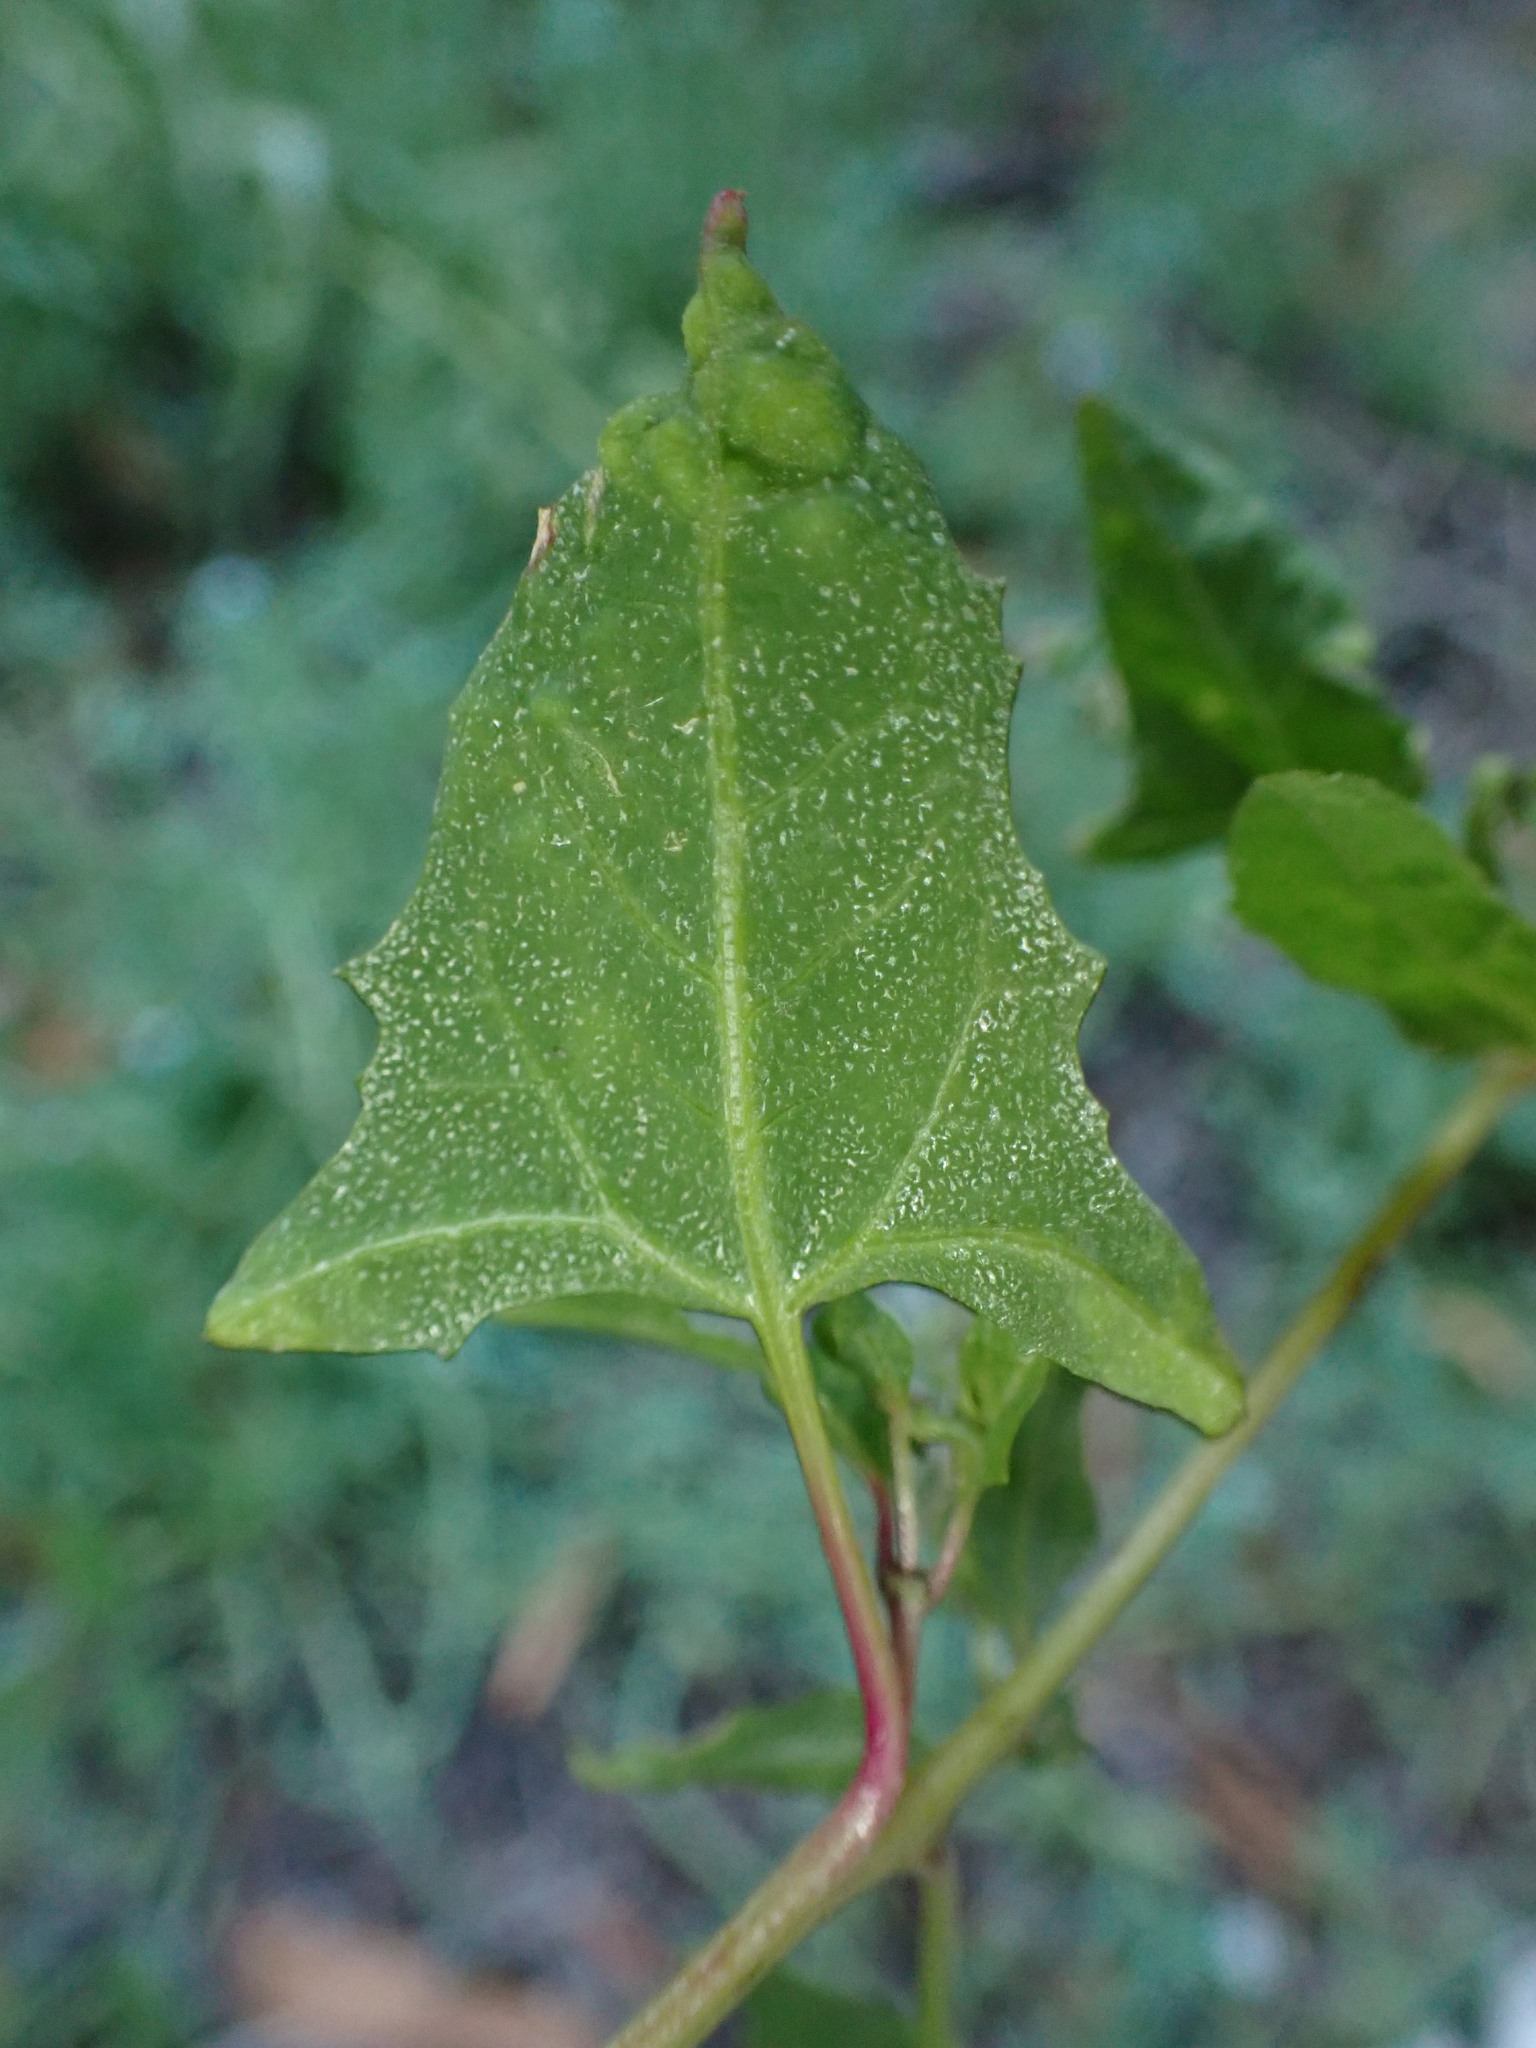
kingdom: Plantae
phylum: Tracheophyta
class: Magnoliopsida
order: Caryophyllales
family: Amaranthaceae
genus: Atriplex
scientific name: Atriplex prostrata
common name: Spear-leaved orache
